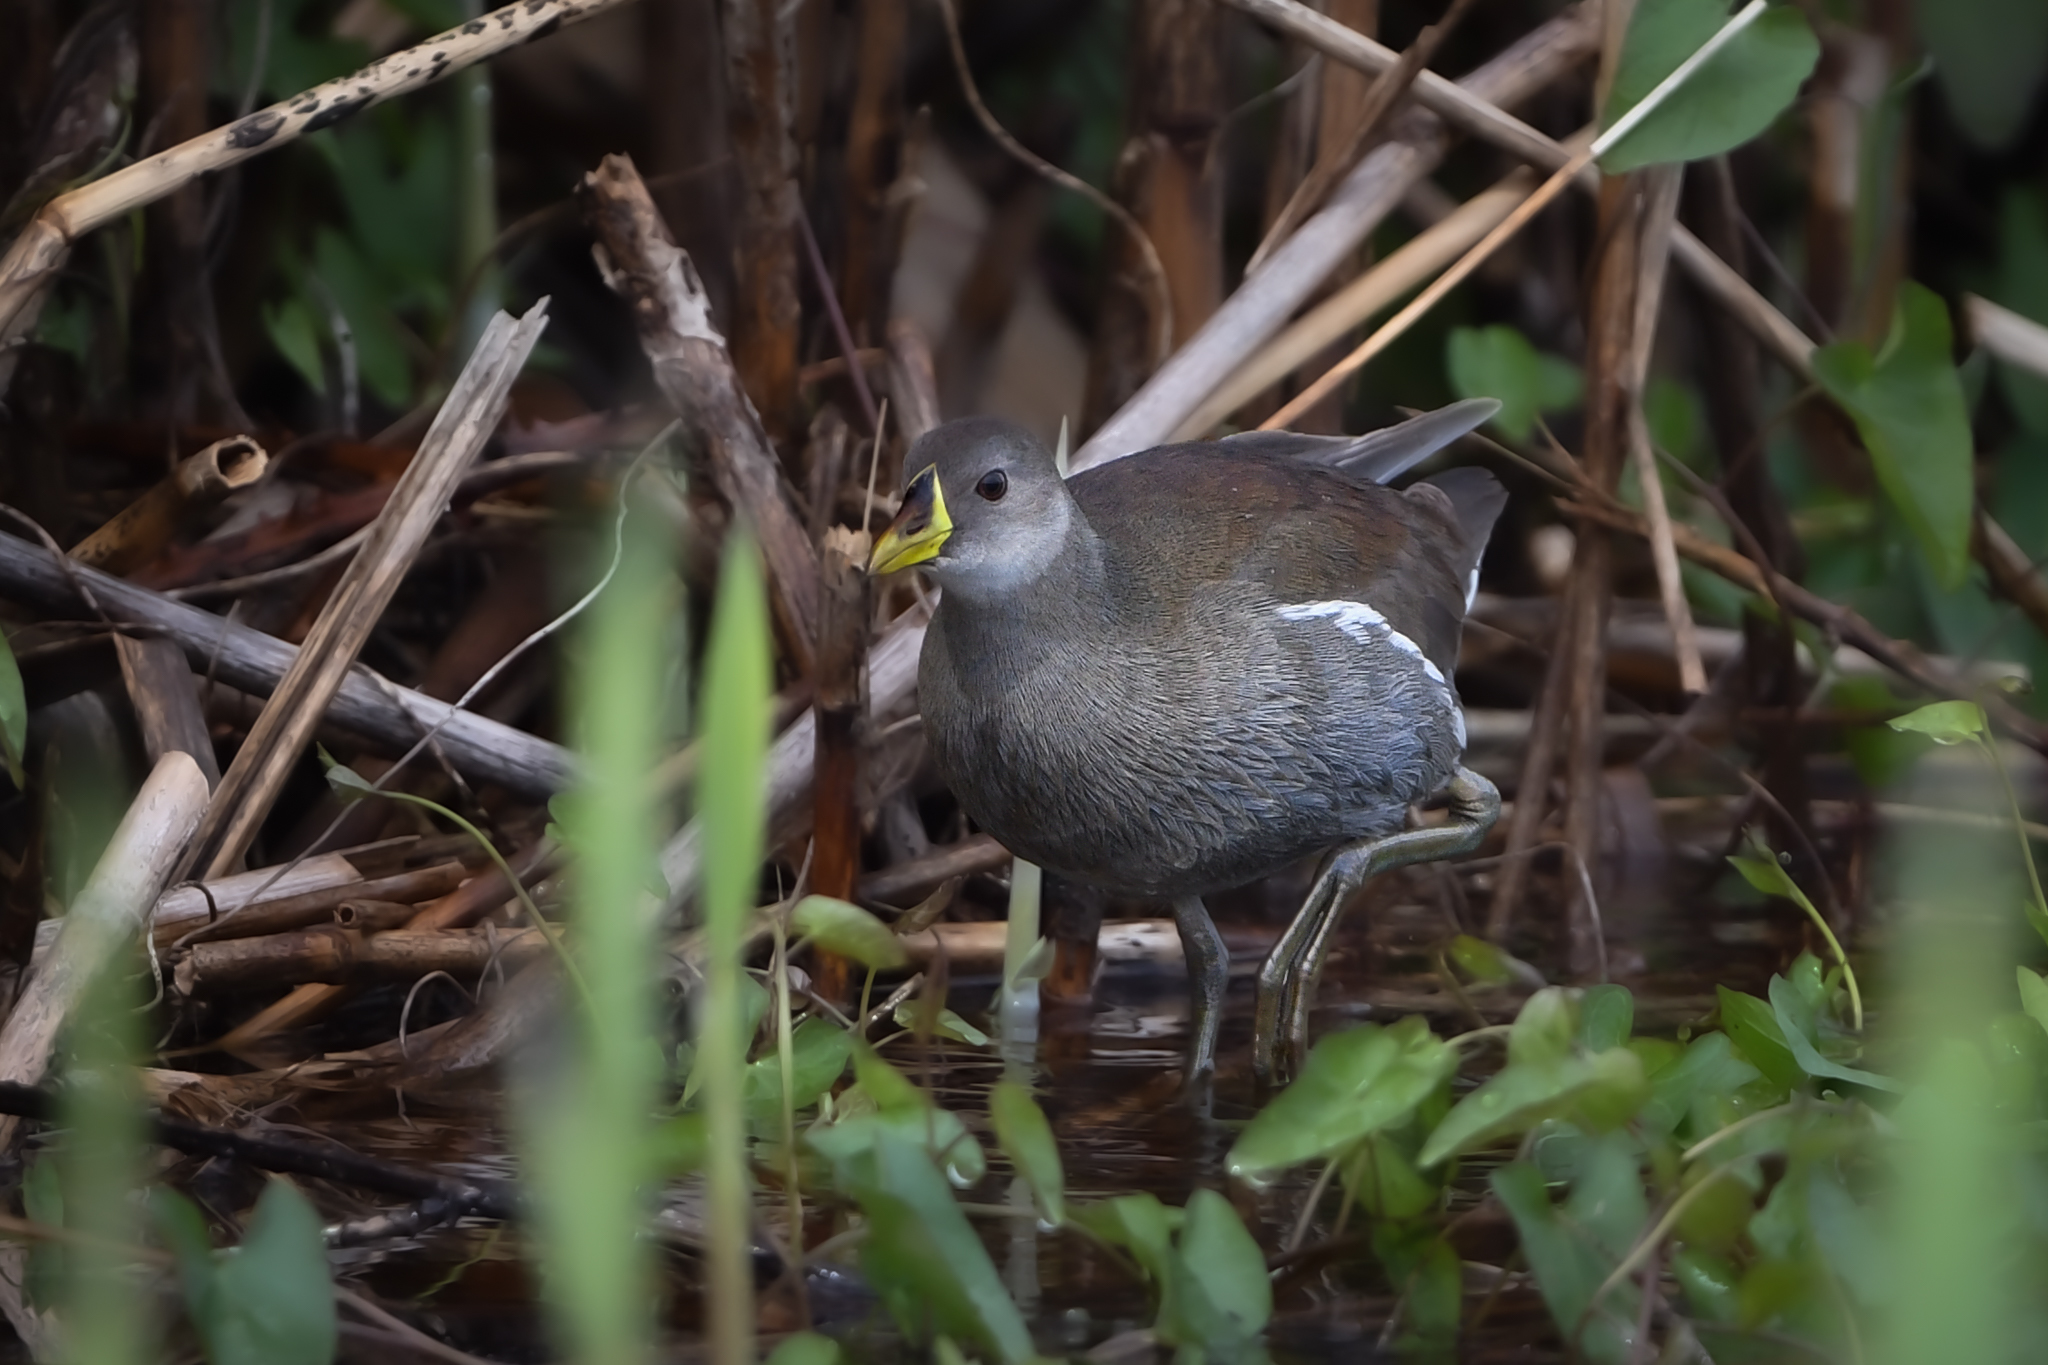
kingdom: Animalia
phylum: Chordata
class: Aves
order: Gruiformes
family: Rallidae
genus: Gallinula
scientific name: Gallinula angulata
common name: Lesser moorhen
